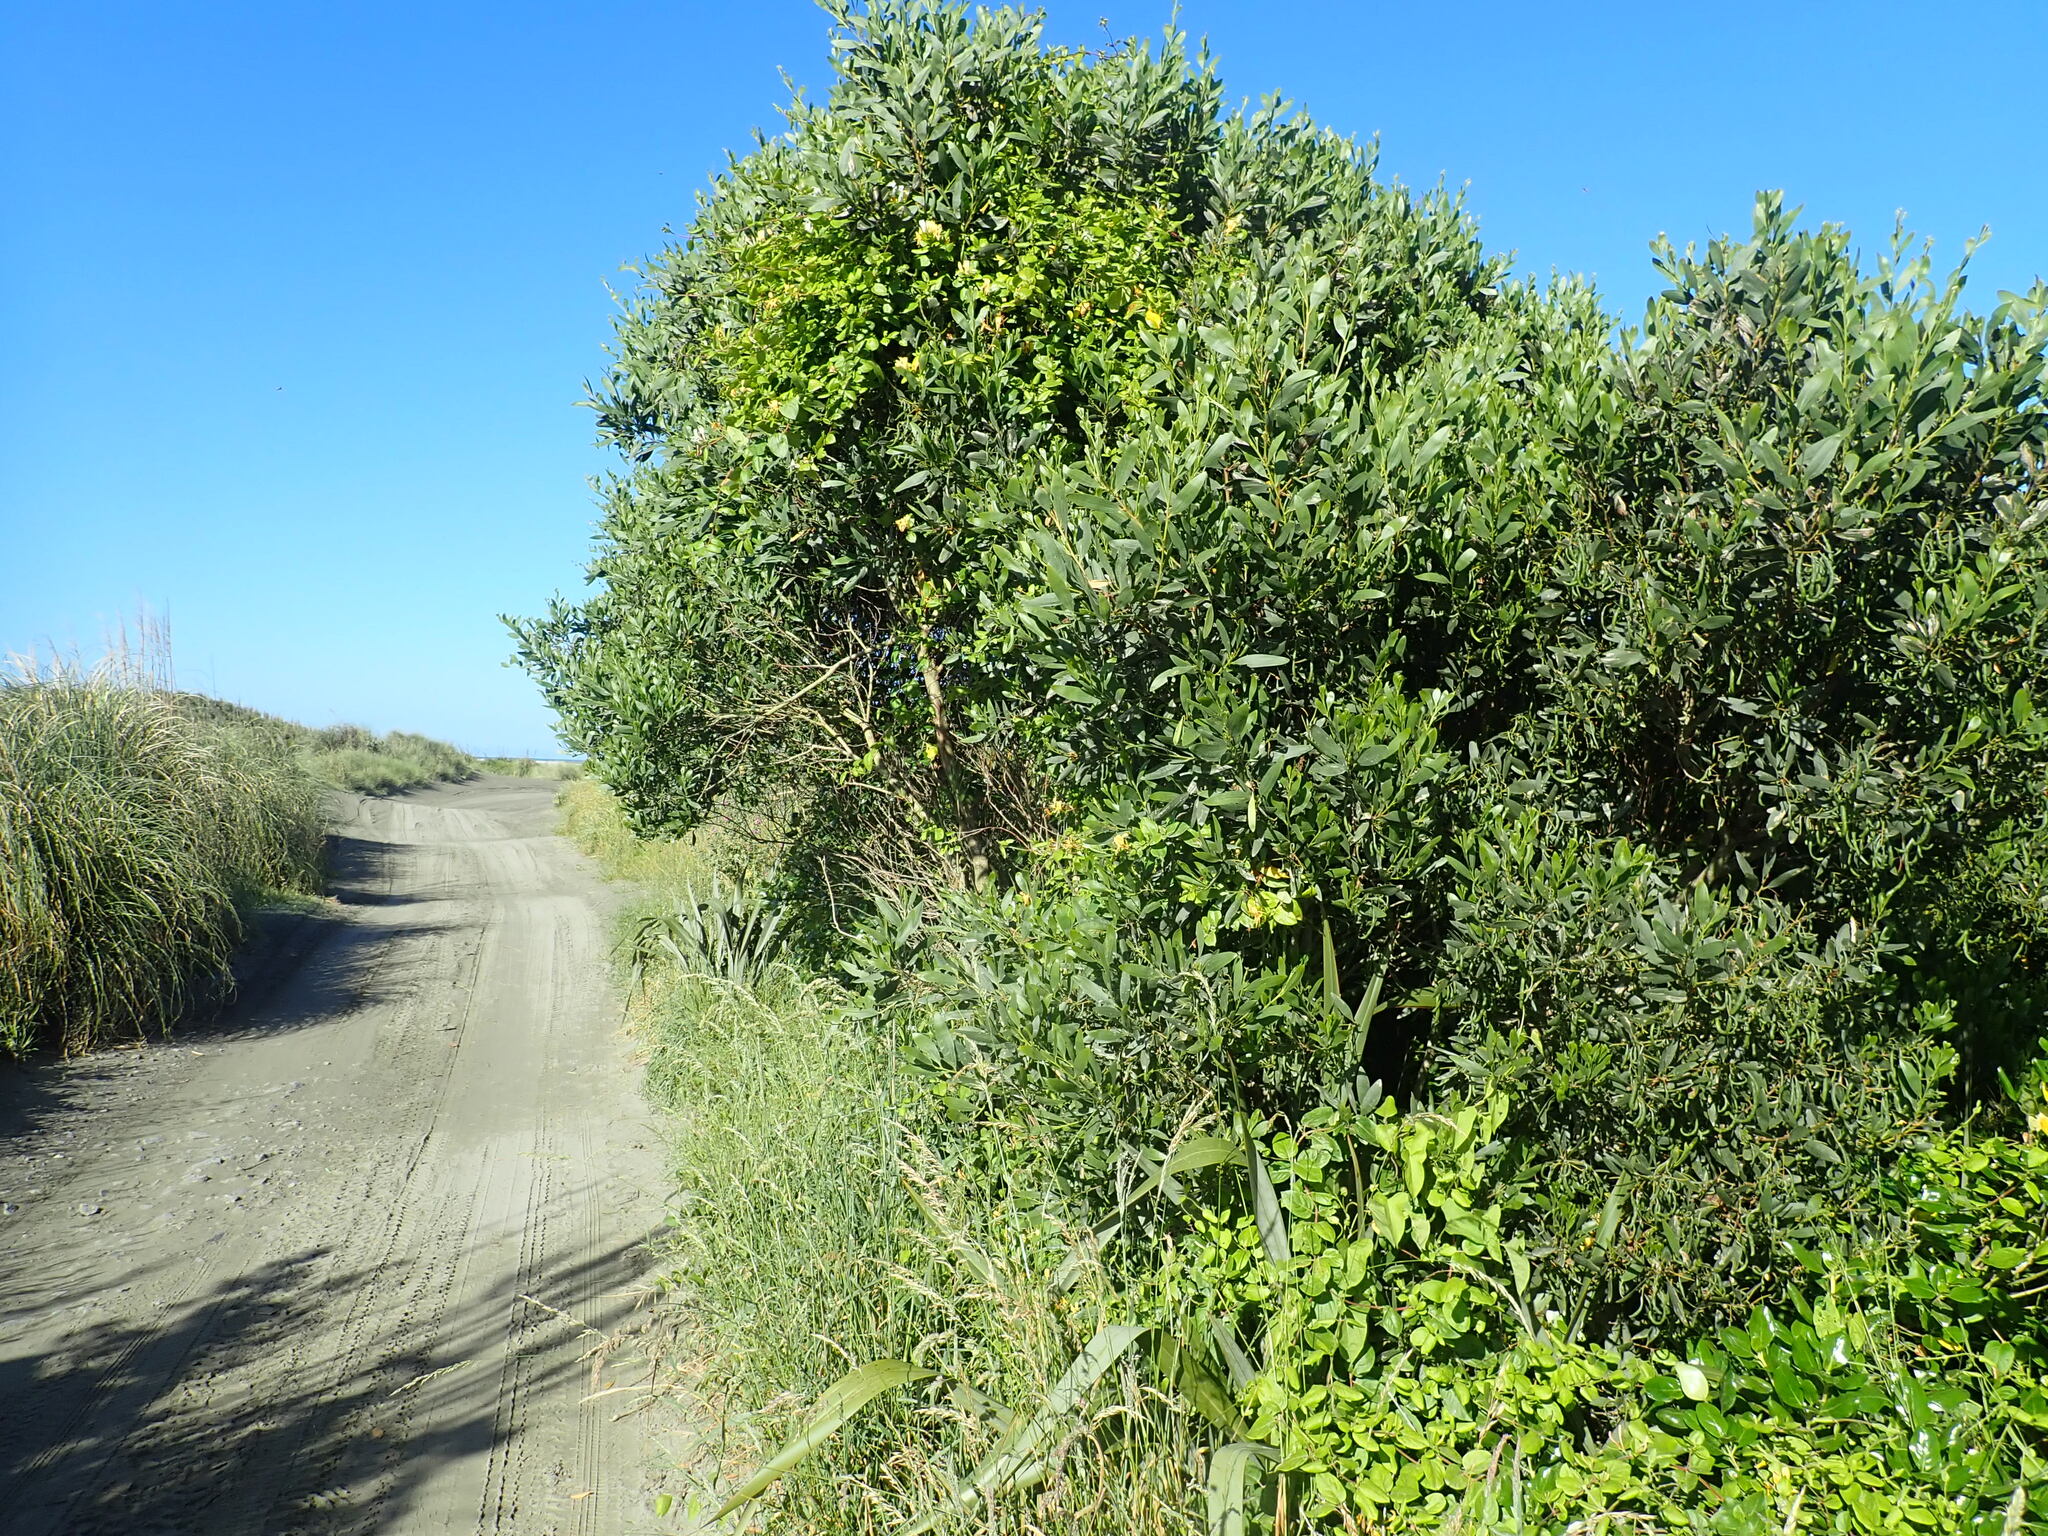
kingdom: Plantae
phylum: Tracheophyta
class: Magnoliopsida
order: Dipsacales
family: Caprifoliaceae
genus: Lonicera
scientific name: Lonicera japonica
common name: Japanese honeysuckle
